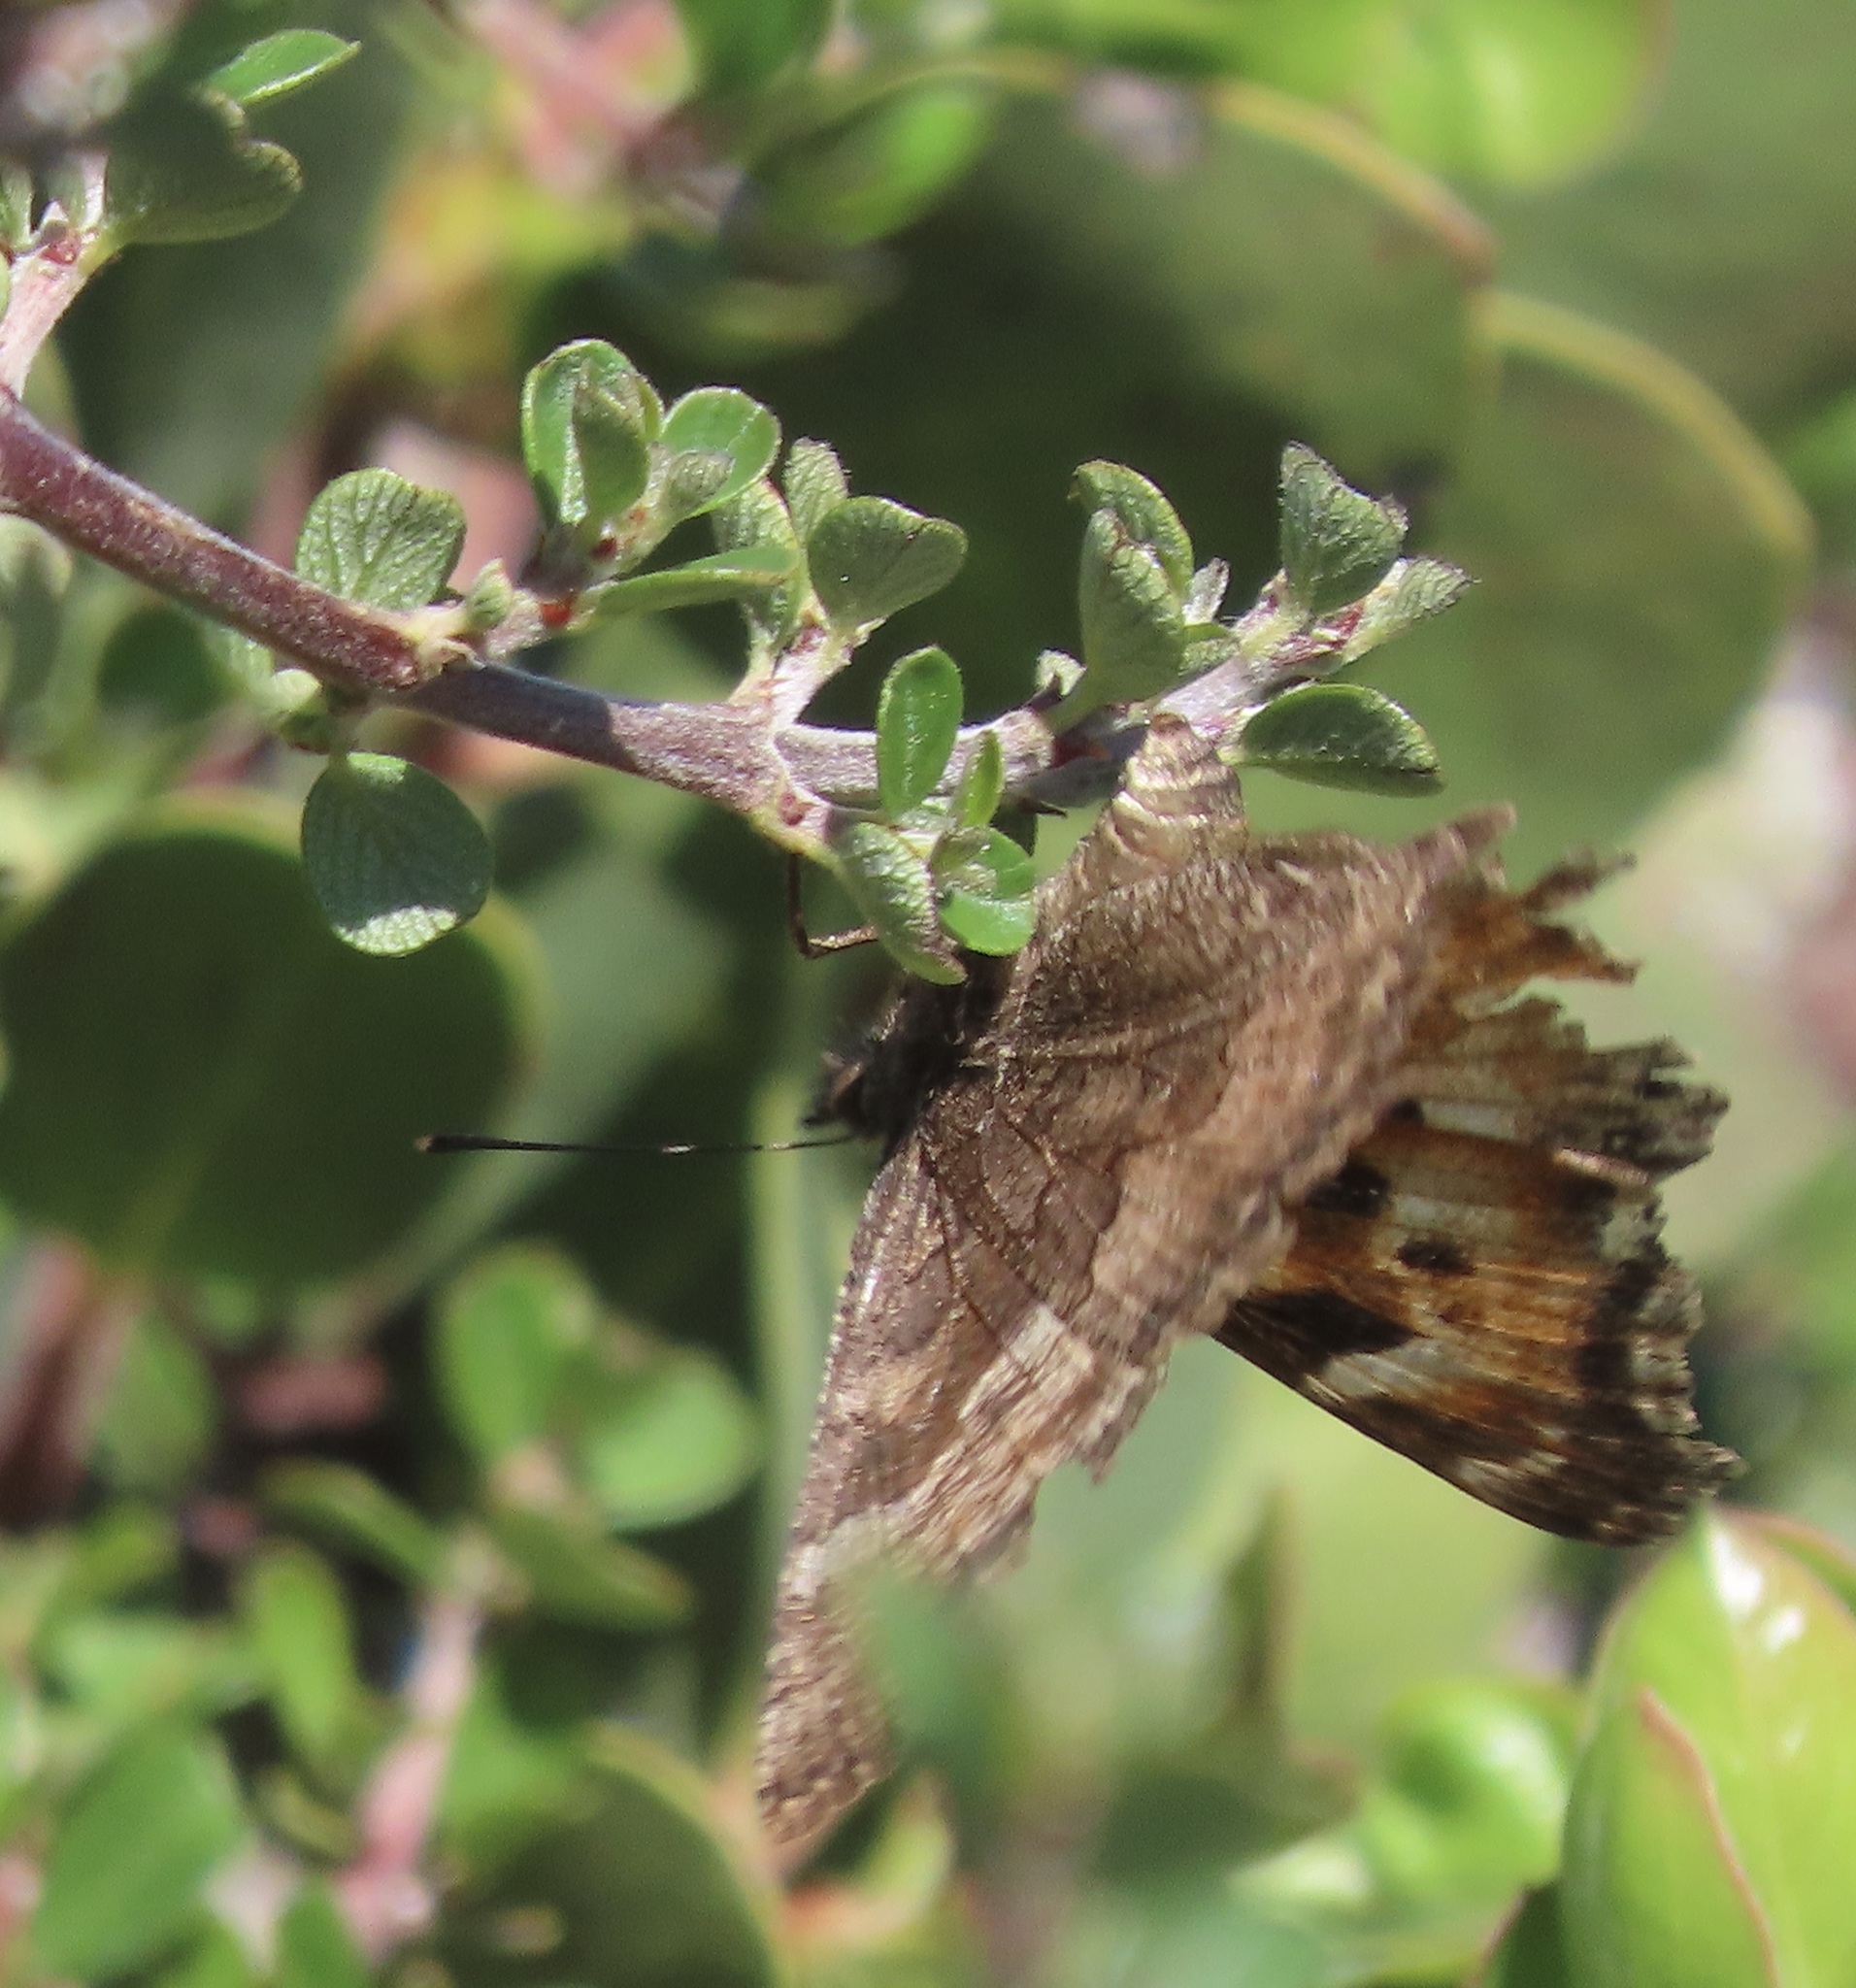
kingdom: Animalia
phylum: Arthropoda
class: Insecta
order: Lepidoptera
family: Nymphalidae
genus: Nymphalis
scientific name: Nymphalis californica
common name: California tortoiseshell
